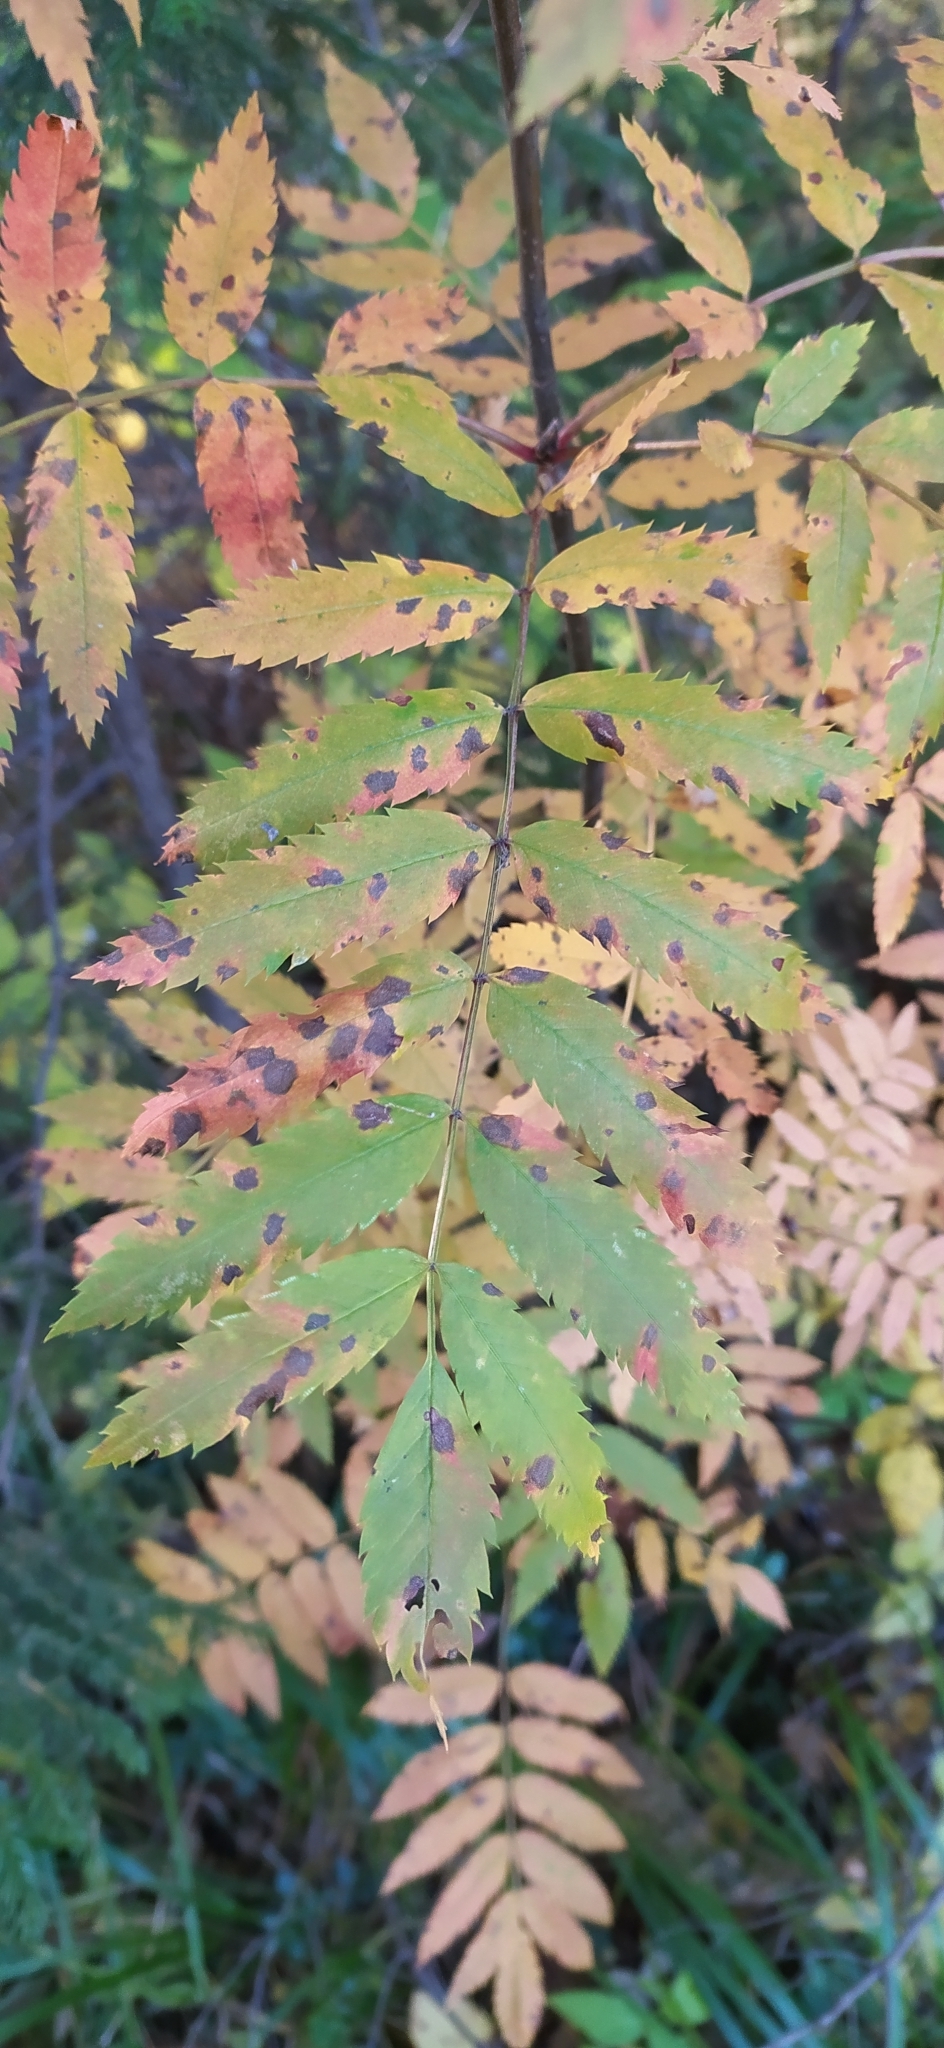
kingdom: Plantae
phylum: Tracheophyta
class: Magnoliopsida
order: Rosales
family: Rosaceae
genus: Sorbus
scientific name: Sorbus aucuparia
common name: Rowan
